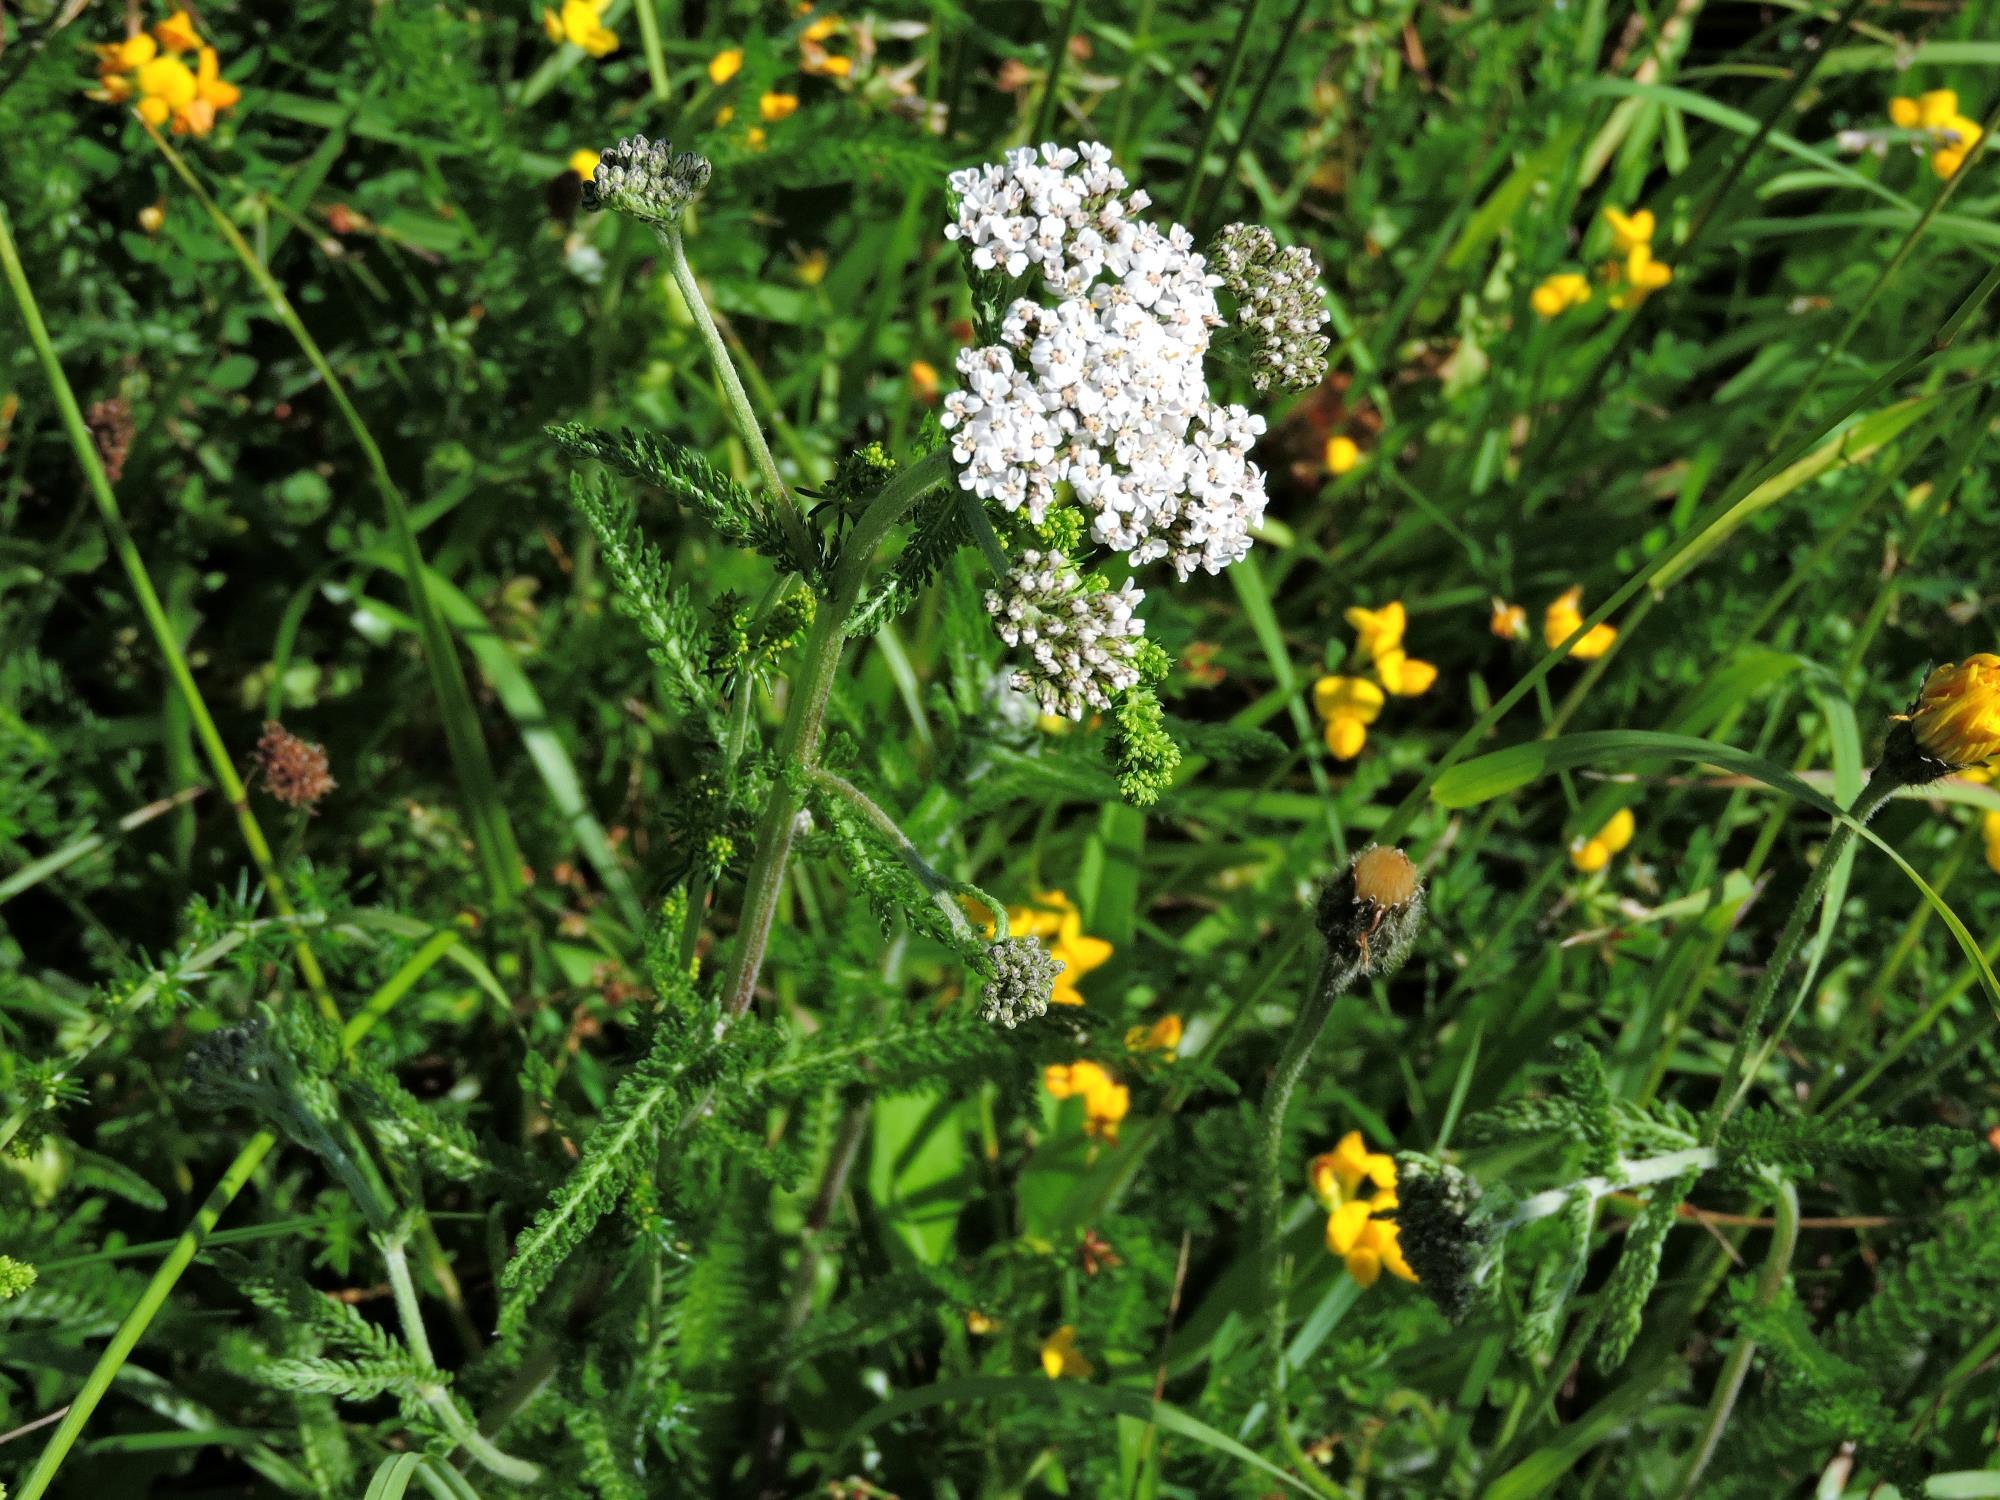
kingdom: Plantae
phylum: Tracheophyta
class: Magnoliopsida
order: Asterales
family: Asteraceae
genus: Achillea
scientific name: Achillea millefolium
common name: Yarrow
